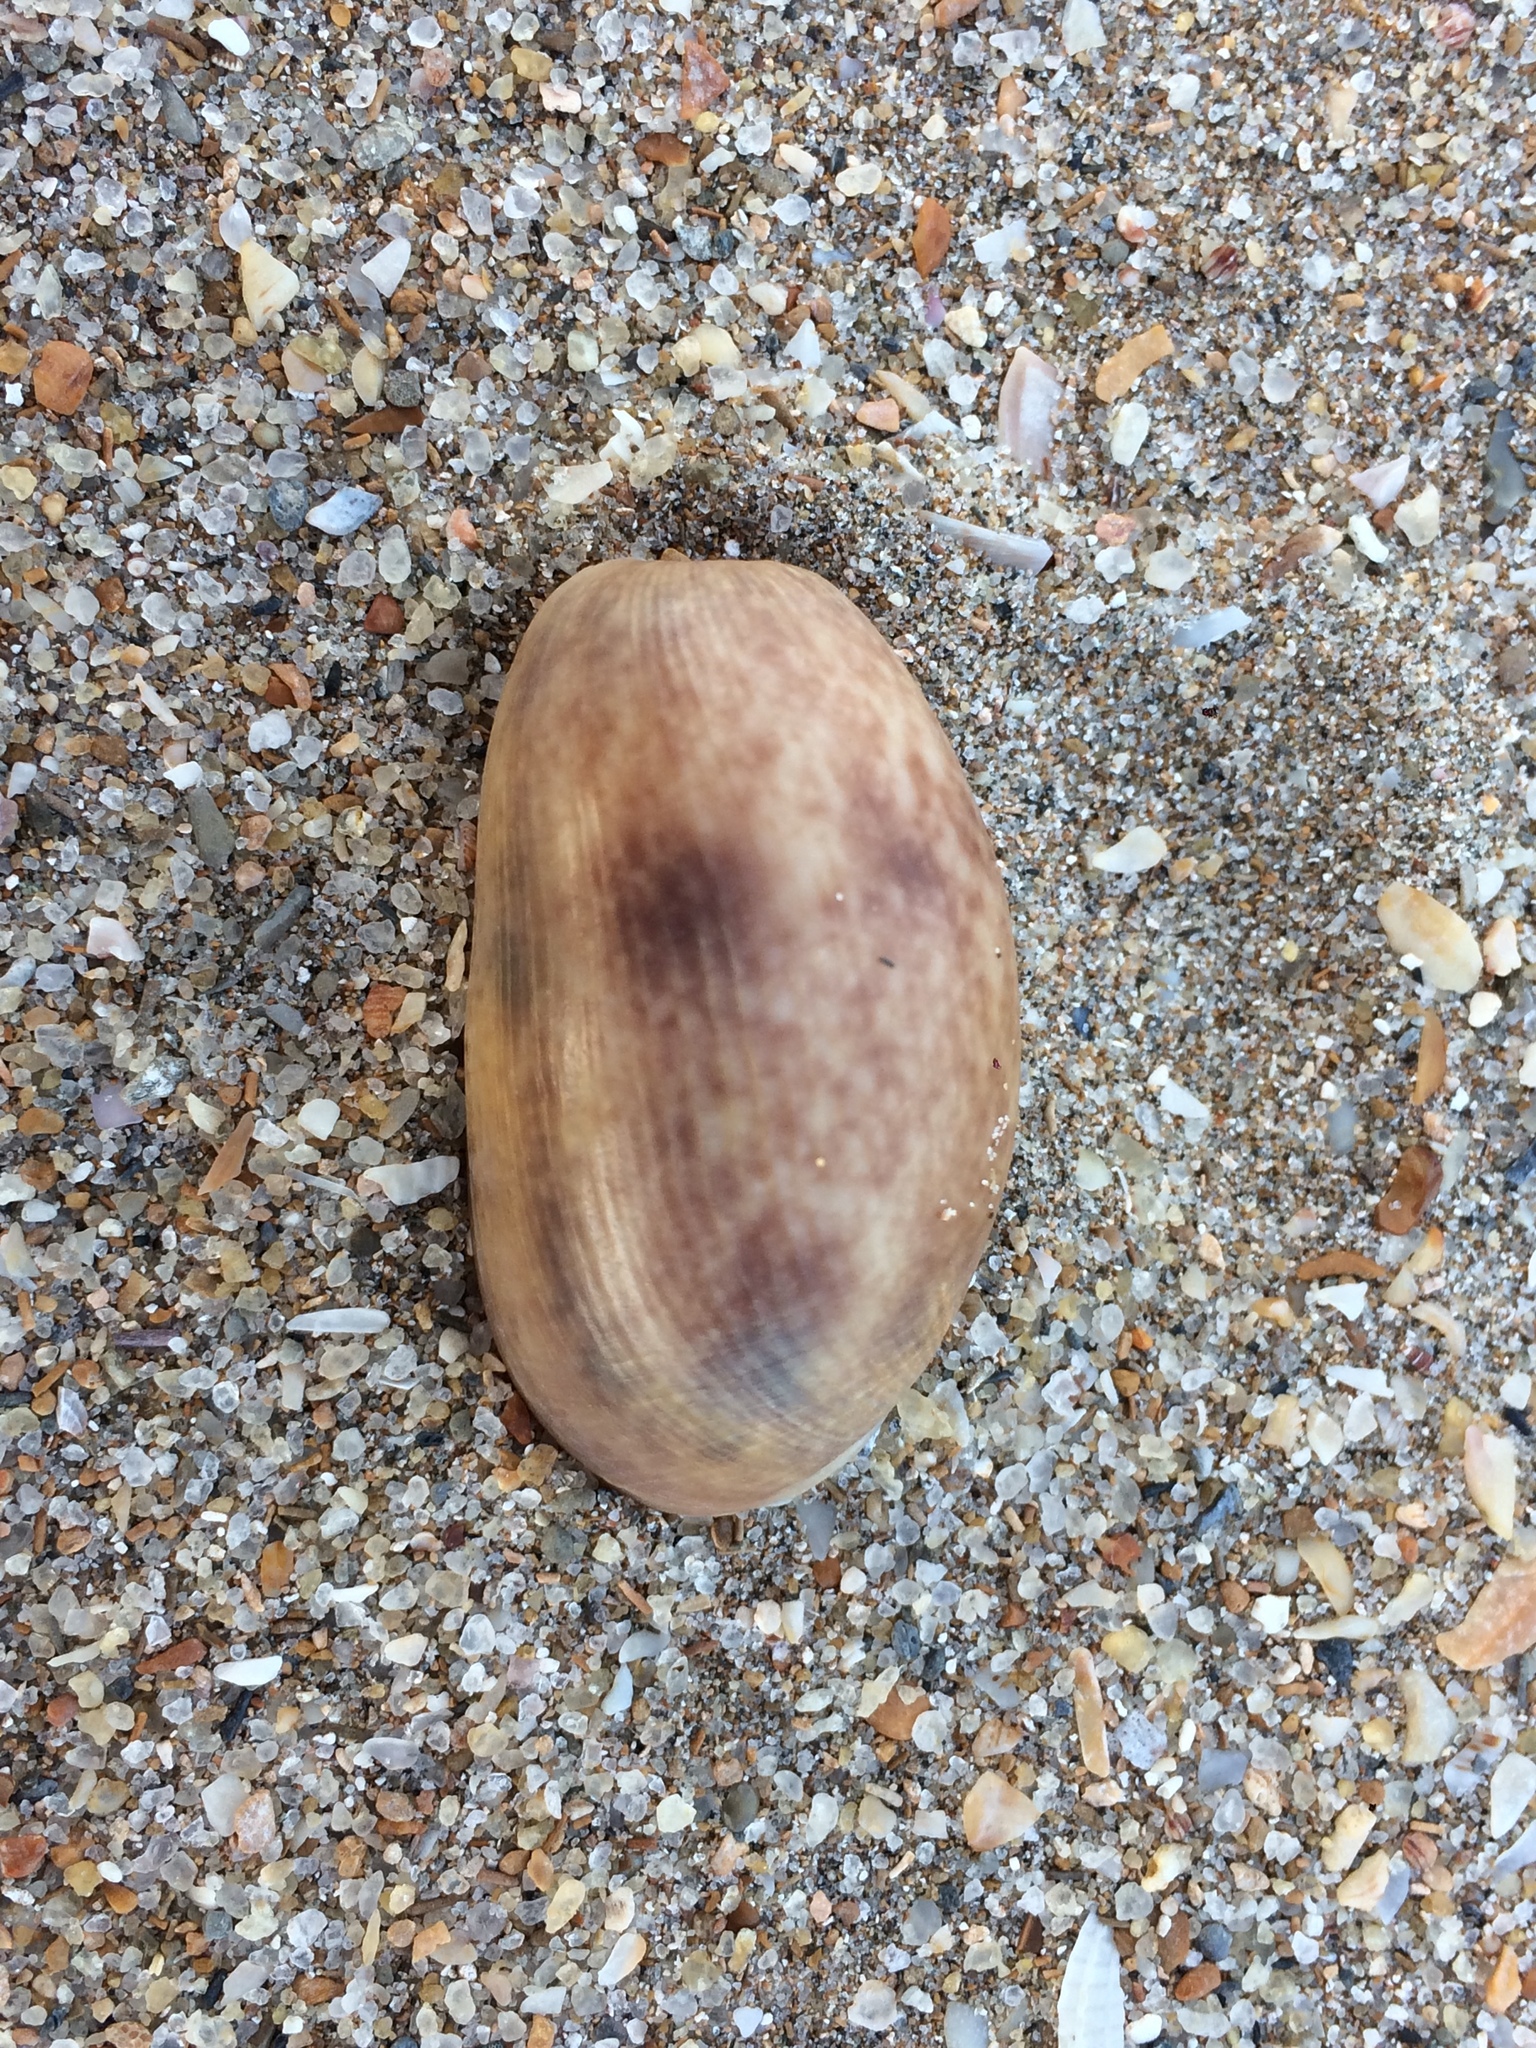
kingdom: Animalia
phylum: Mollusca
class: Gastropoda
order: Cephalaspidea
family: Bullidae
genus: Bulla
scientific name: Bulla occidentalis
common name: Common west-indian bubble
